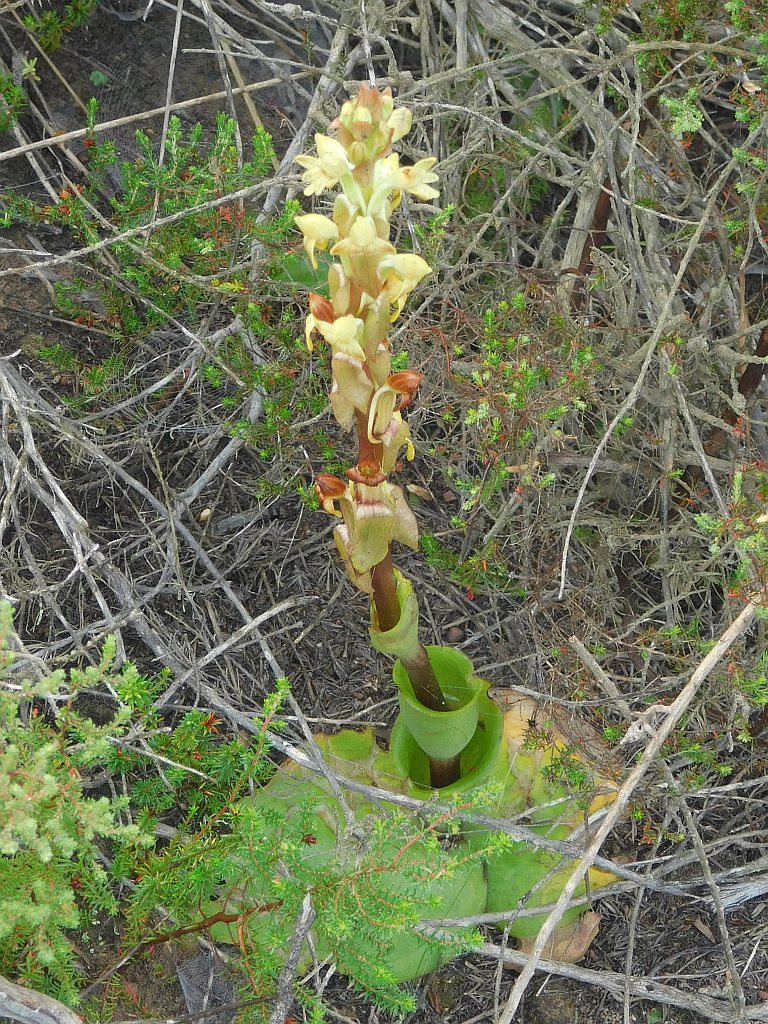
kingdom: Plantae
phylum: Tracheophyta
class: Liliopsida
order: Asparagales
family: Orchidaceae
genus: Satyrium
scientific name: Satyrium bicorne
